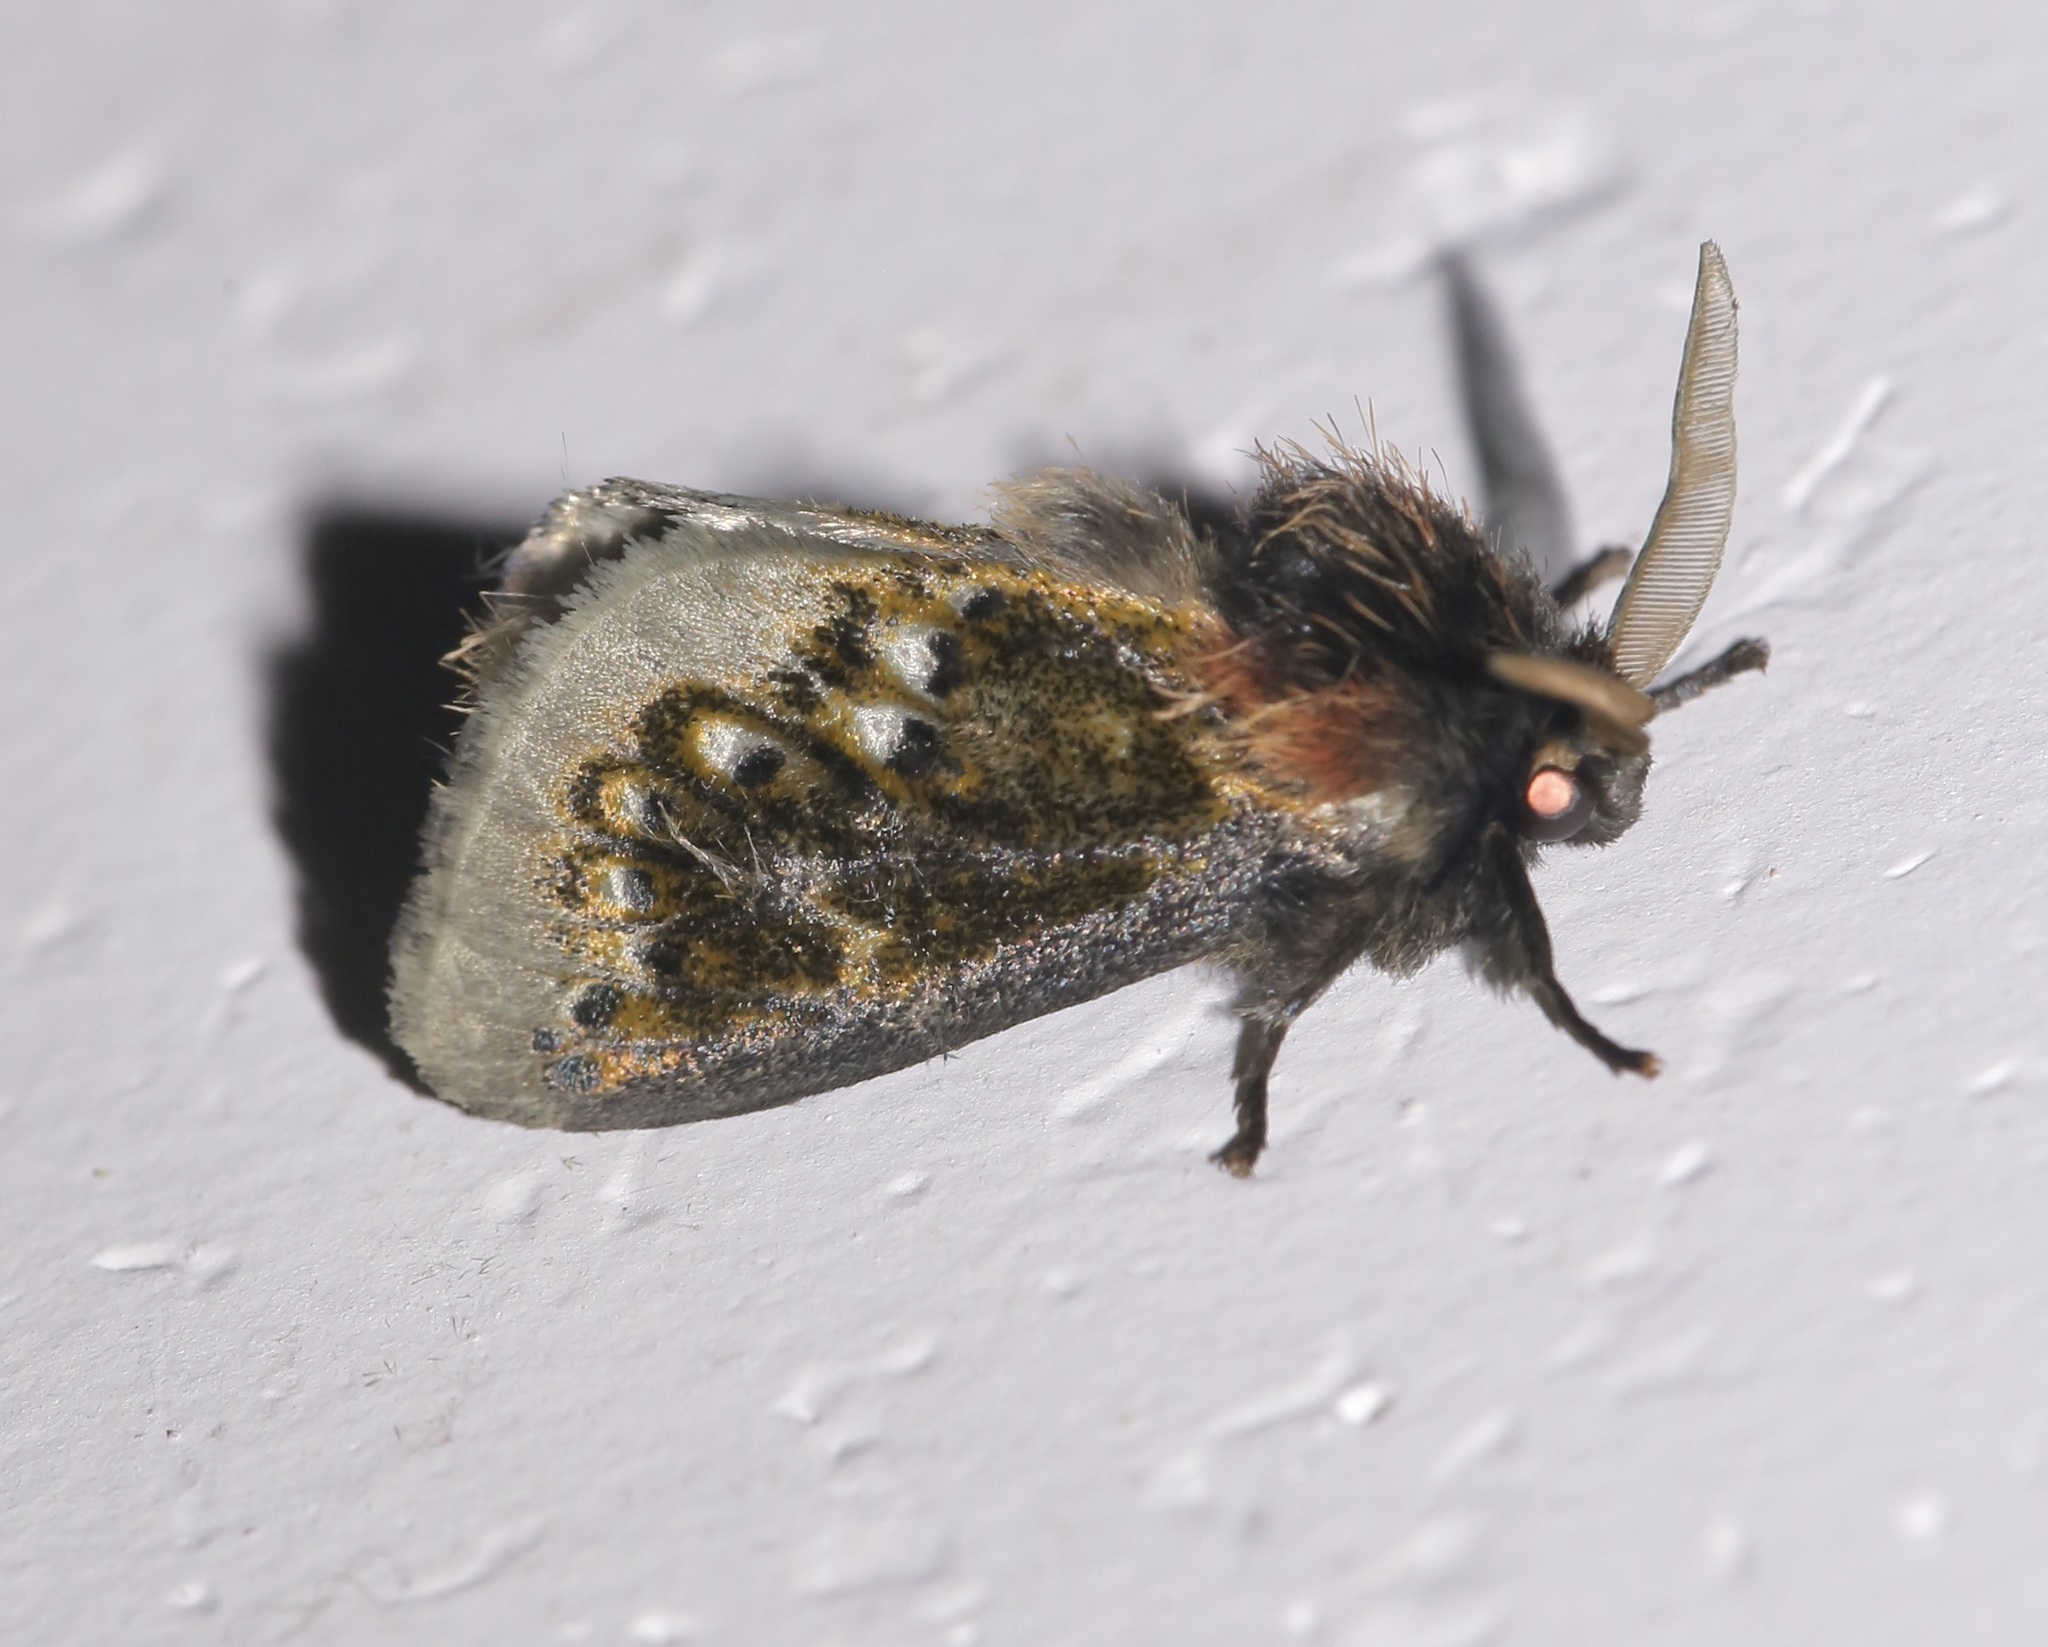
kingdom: Animalia
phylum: Arthropoda
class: Insecta
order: Lepidoptera
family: Megalopygidae
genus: Macara
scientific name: Macara alydda
